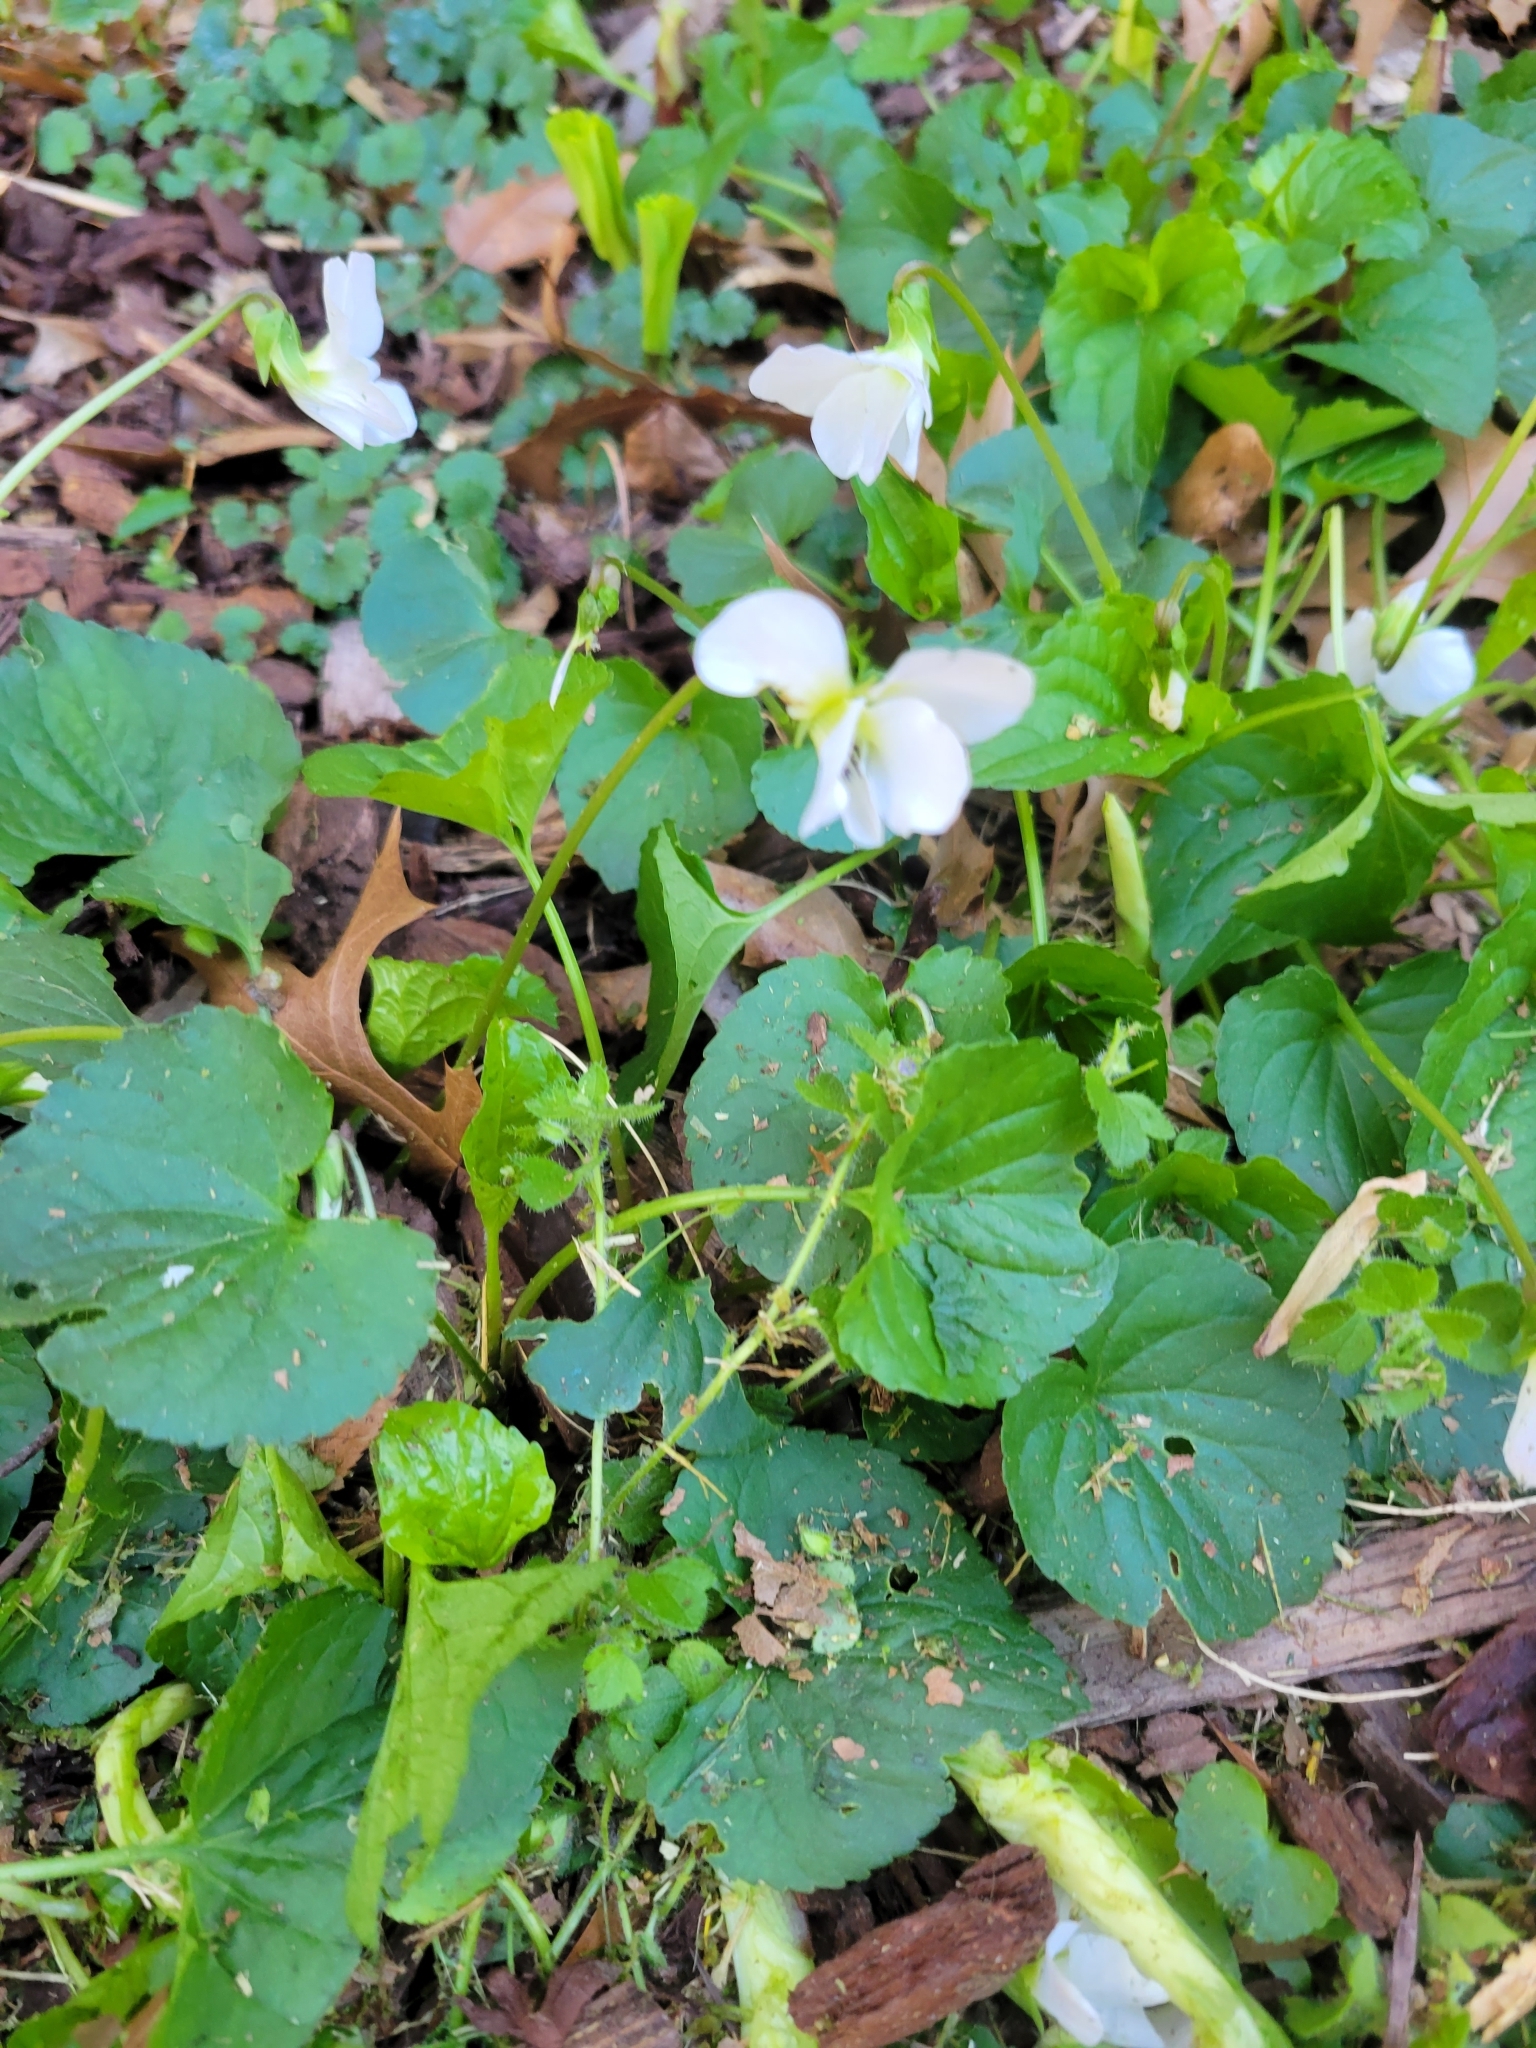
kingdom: Plantae
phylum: Tracheophyta
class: Magnoliopsida
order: Malpighiales
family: Violaceae
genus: Viola
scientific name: Viola striata
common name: Cream violet
